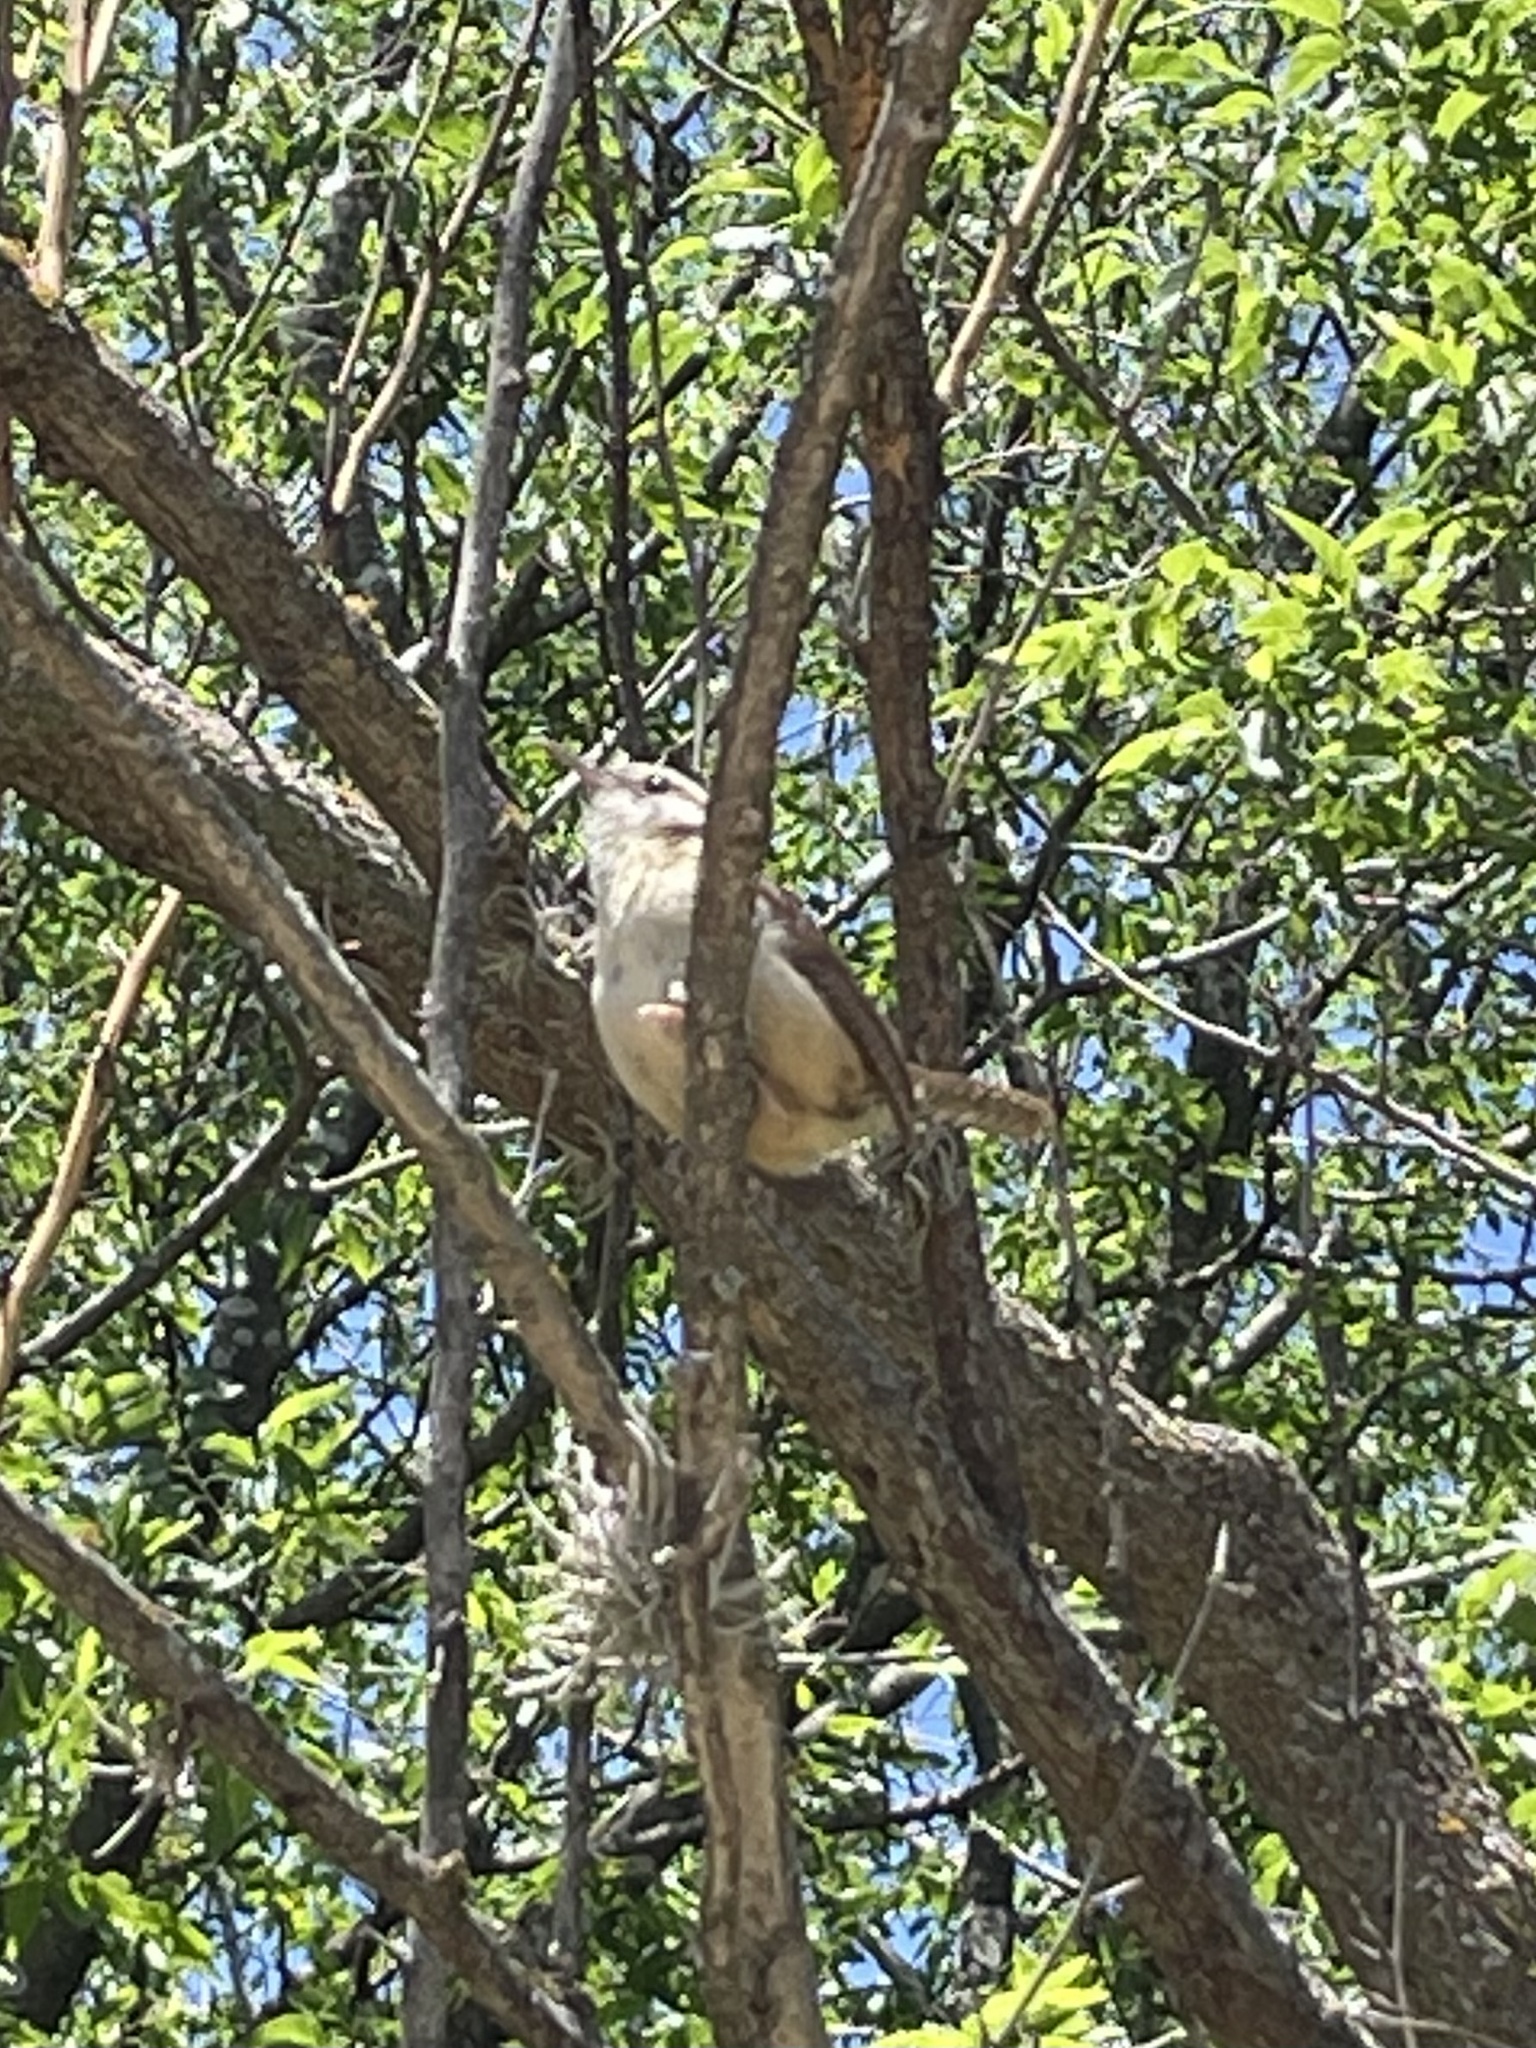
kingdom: Animalia
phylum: Chordata
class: Aves
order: Passeriformes
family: Troglodytidae
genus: Thryothorus
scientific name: Thryothorus ludovicianus
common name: Carolina wren
